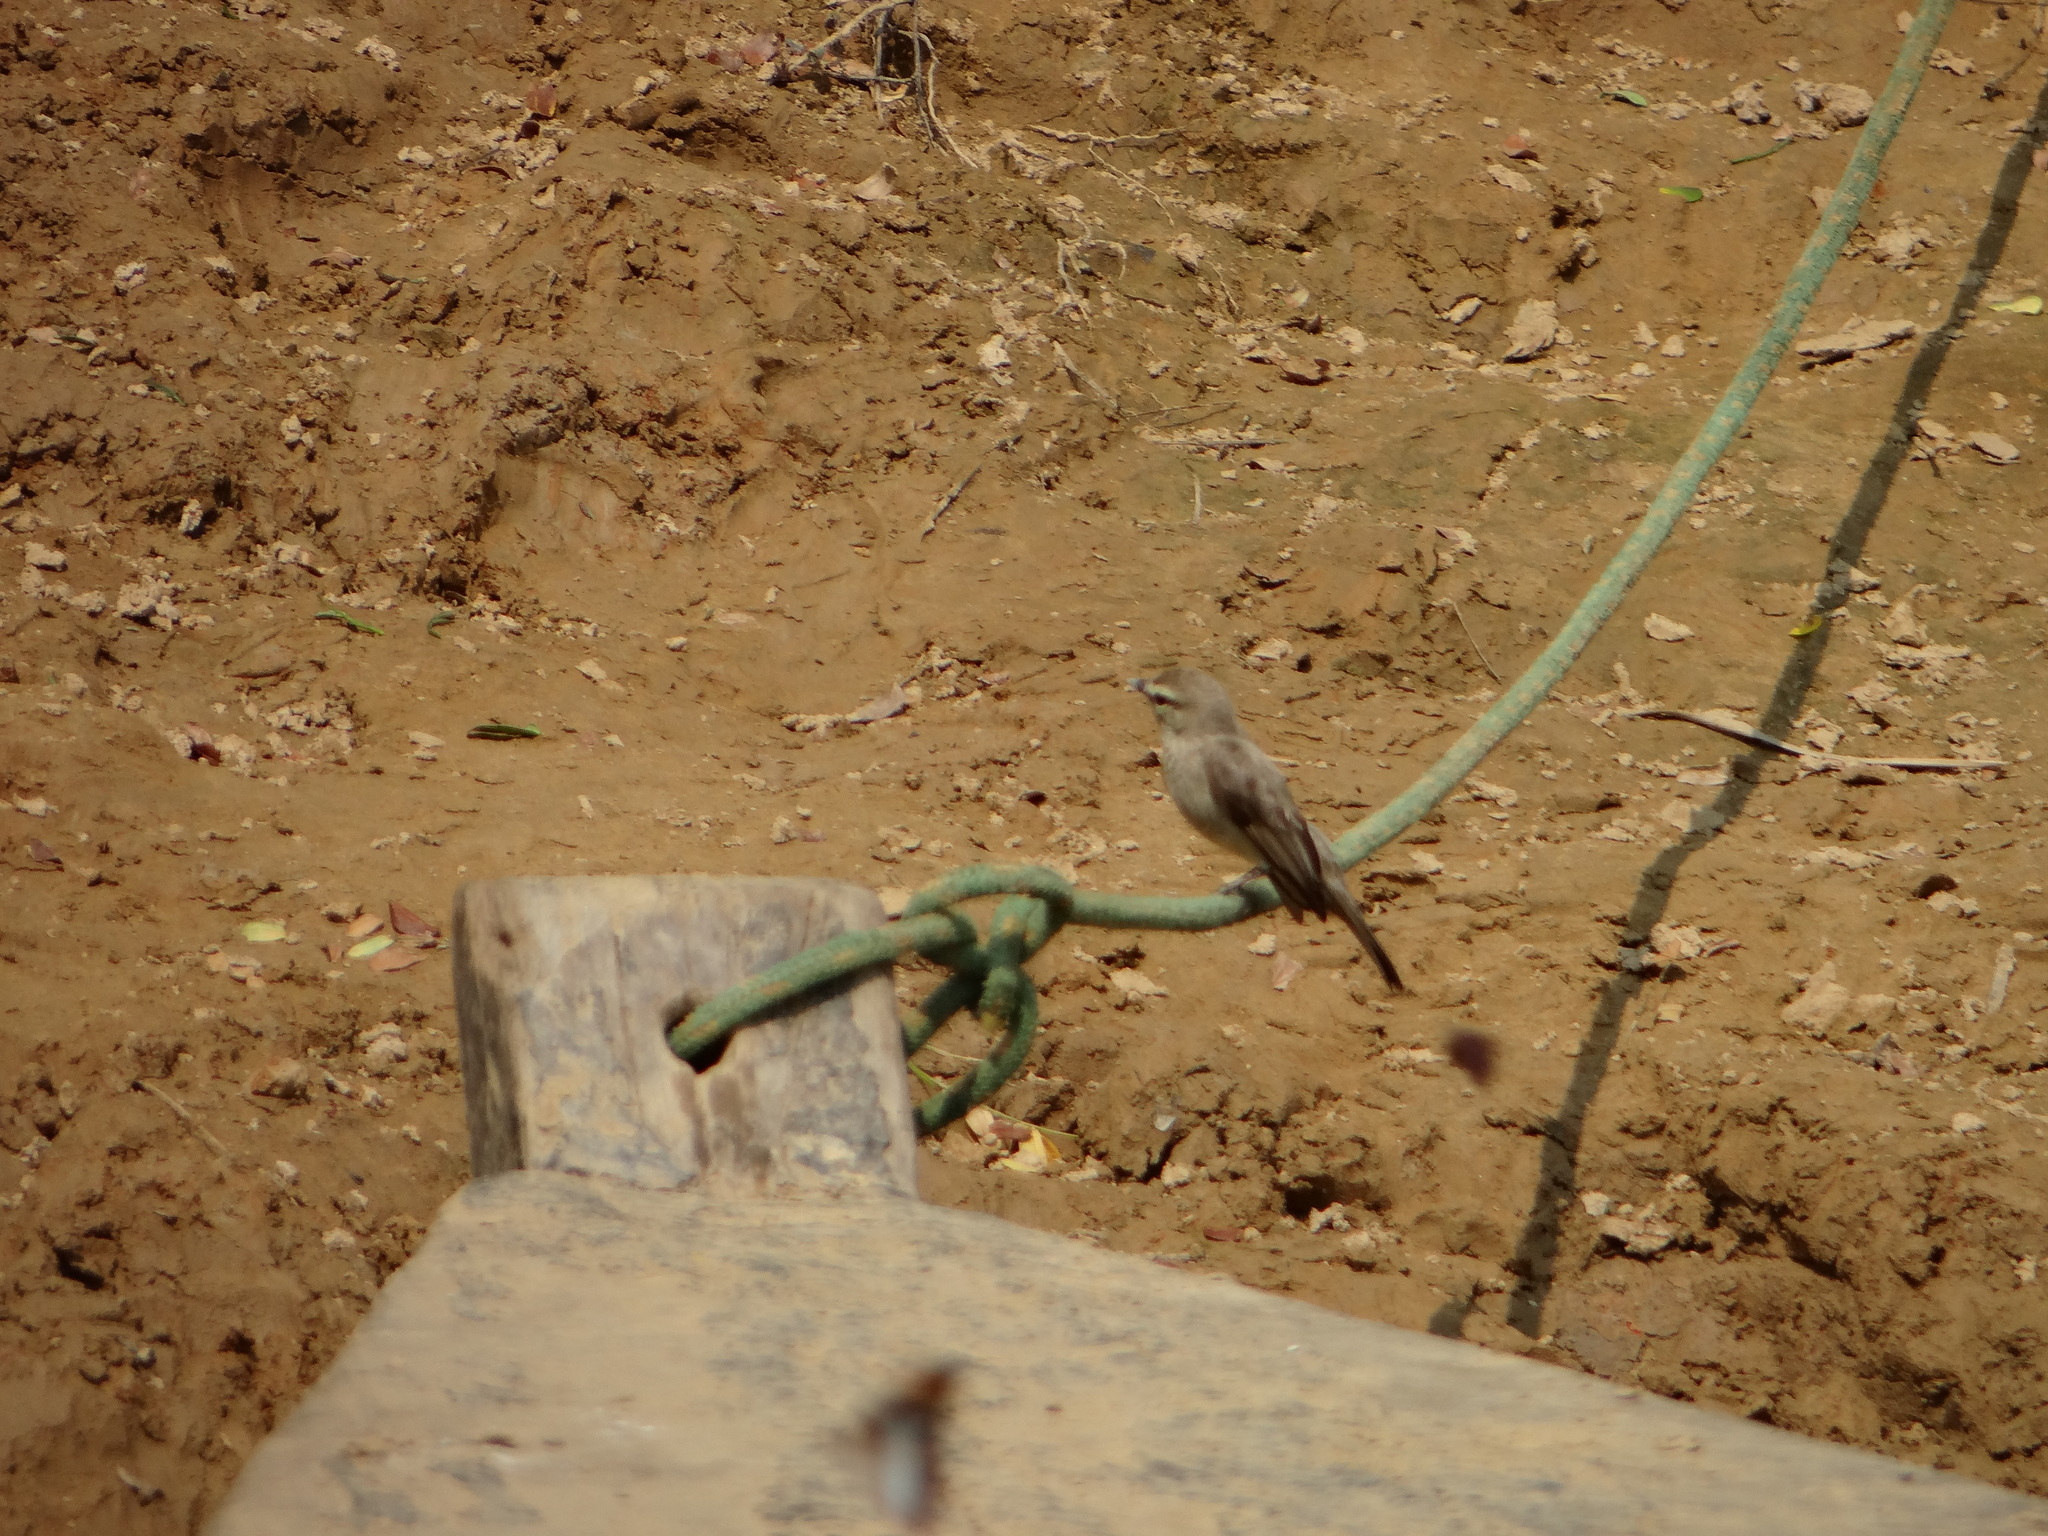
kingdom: Animalia
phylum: Chordata
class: Aves
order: Passeriformes
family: Tyrannidae
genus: Ochthornis
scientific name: Ochthornis littoralis
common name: Drab water tyrant
